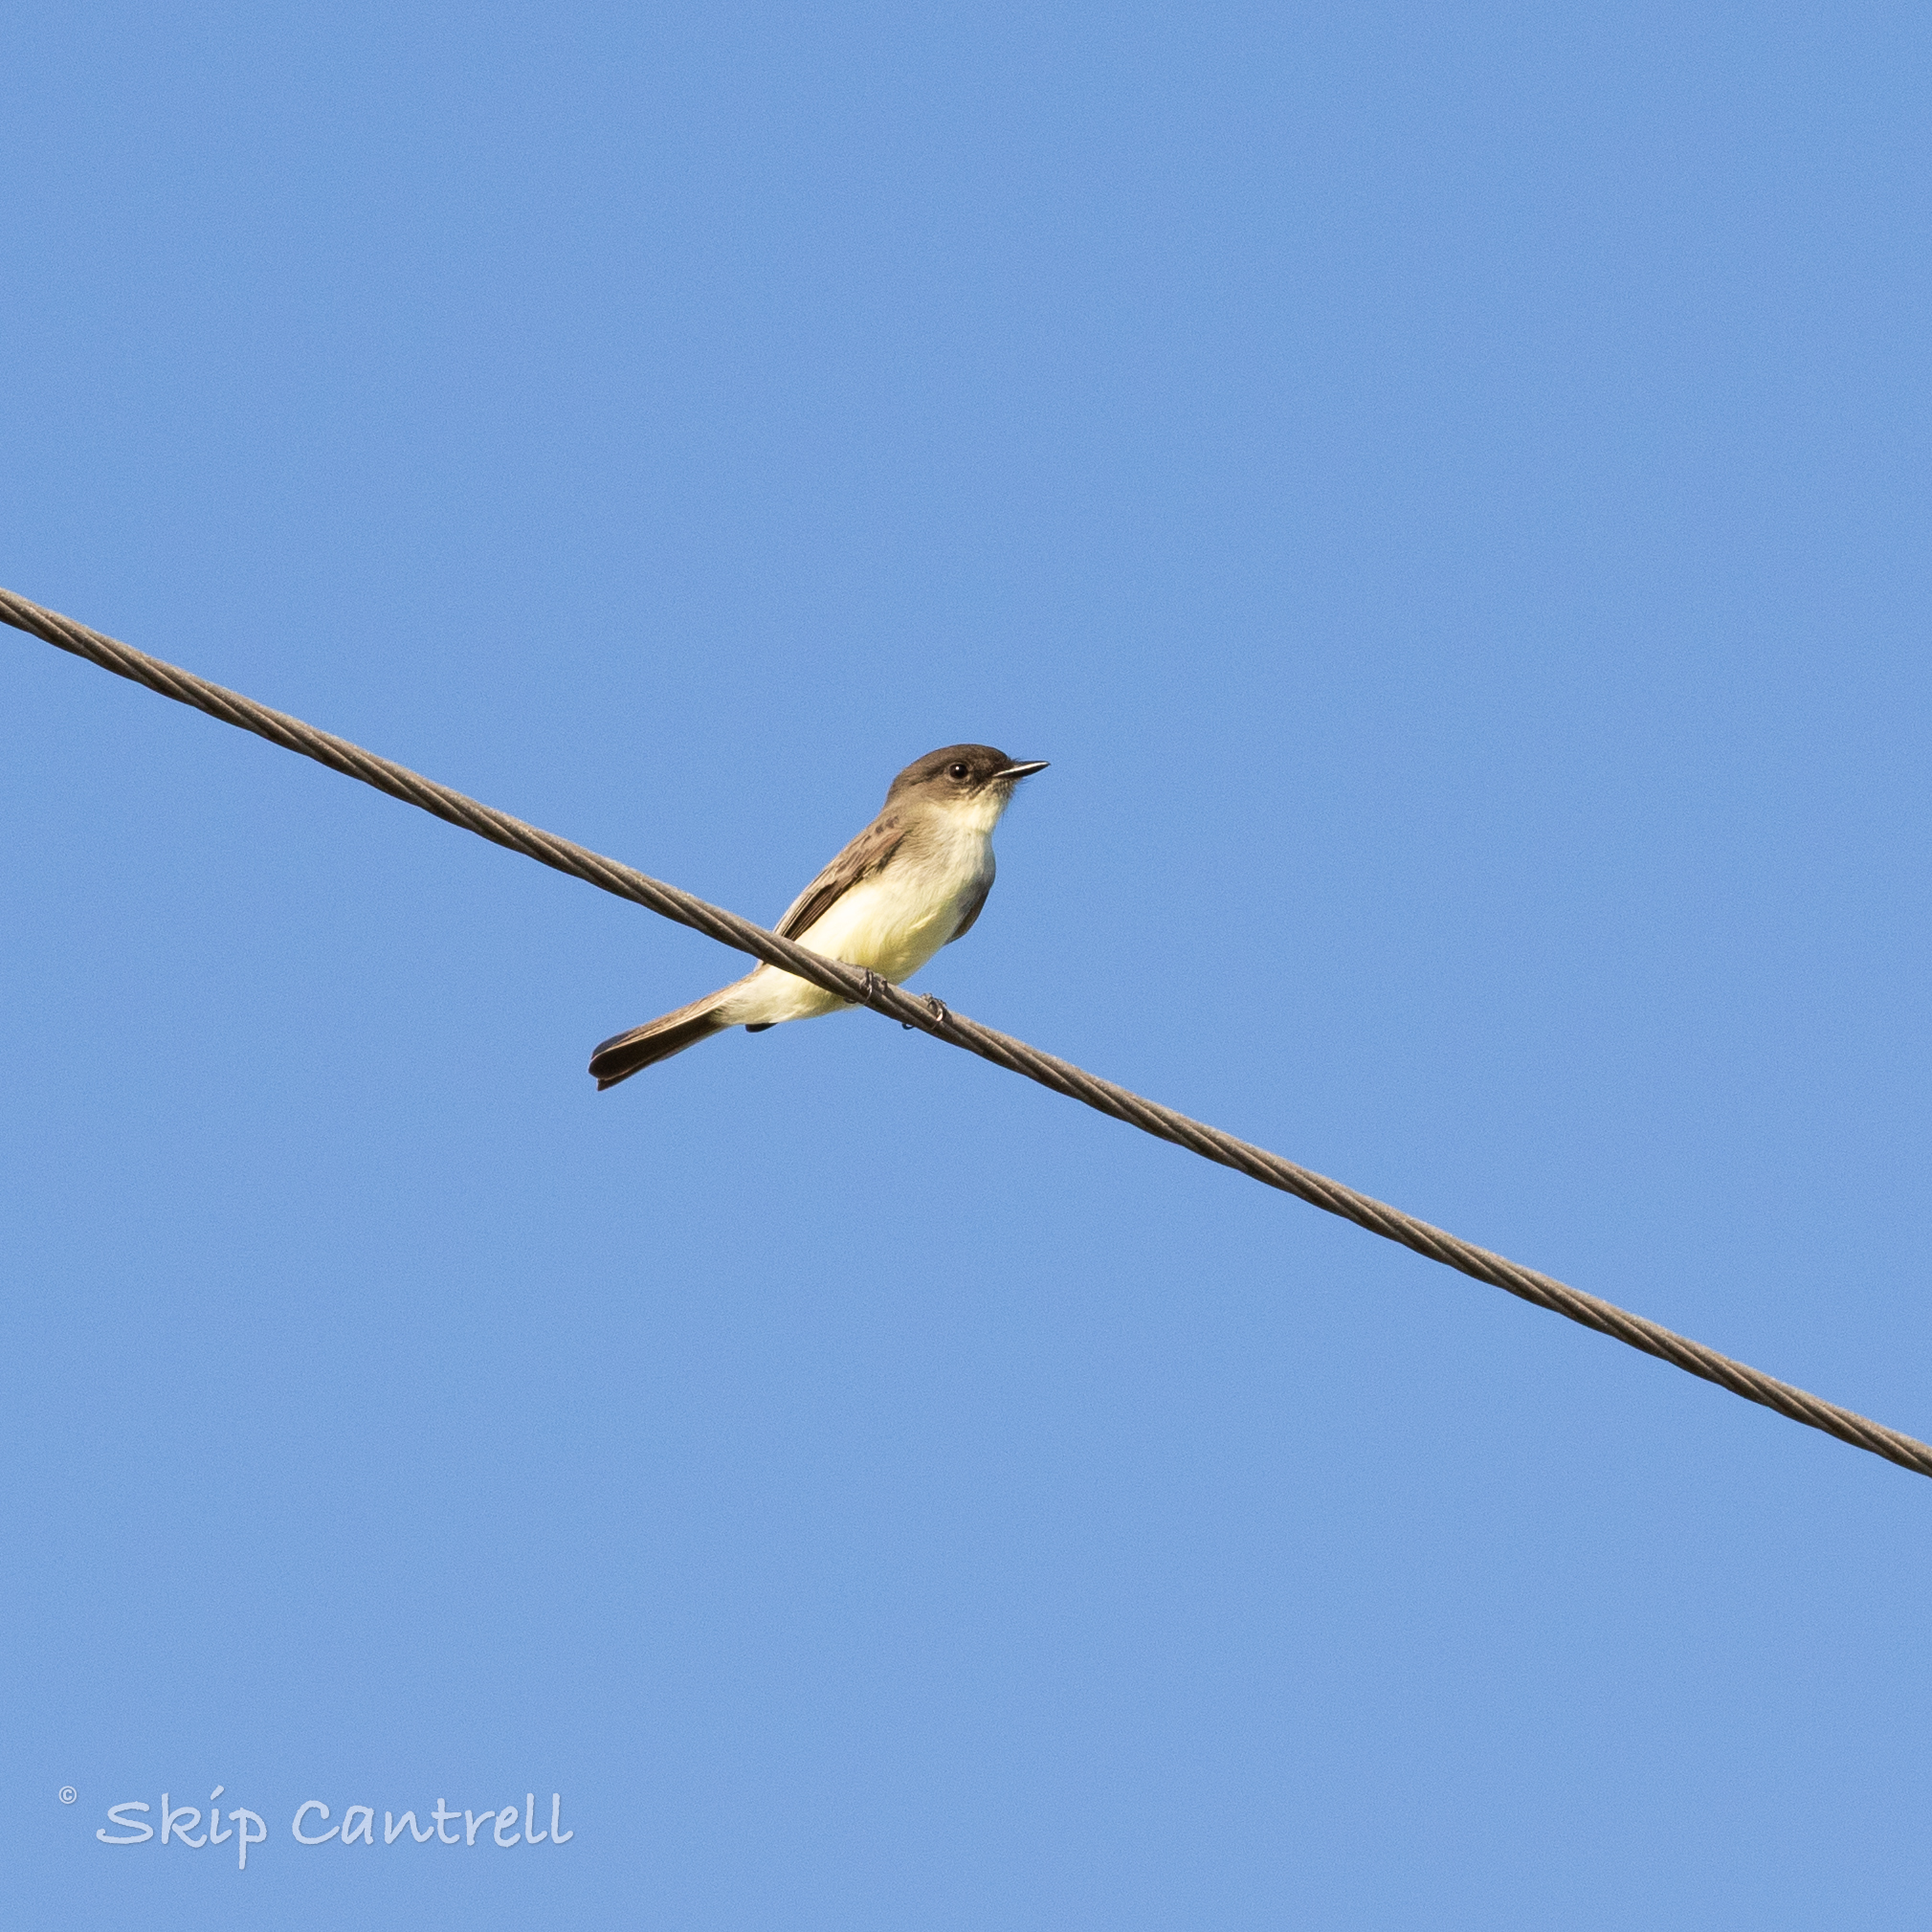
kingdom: Animalia
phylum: Chordata
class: Aves
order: Passeriformes
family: Tyrannidae
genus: Sayornis
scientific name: Sayornis phoebe
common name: Eastern phoebe
